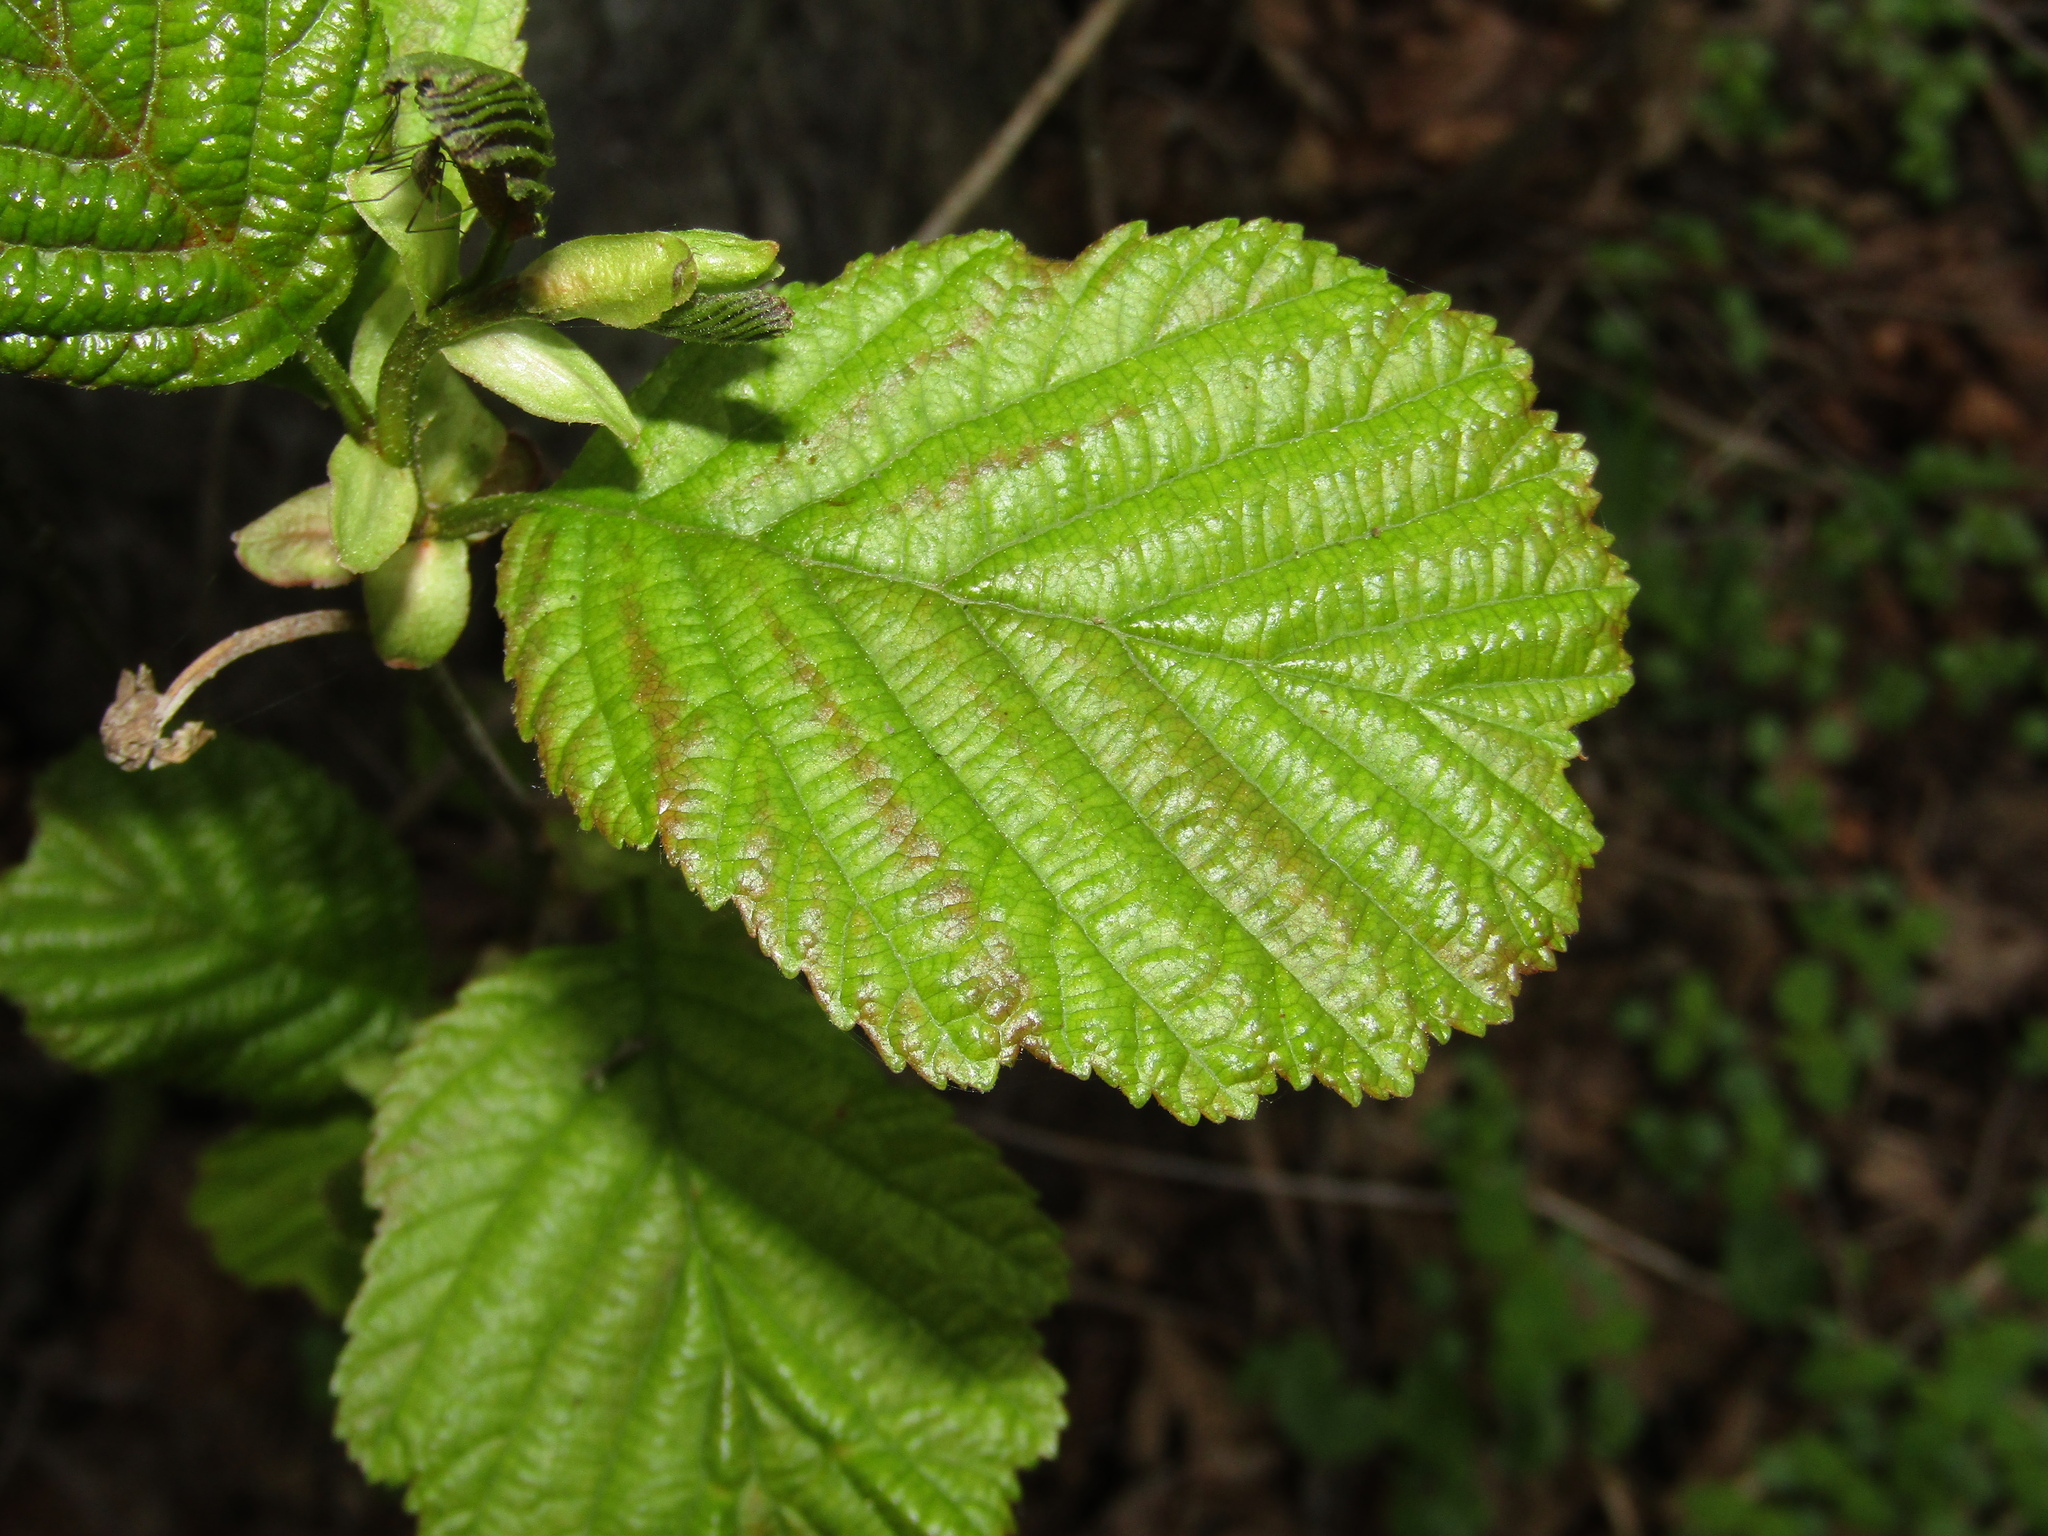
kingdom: Plantae
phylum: Tracheophyta
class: Magnoliopsida
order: Fagales
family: Betulaceae
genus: Alnus
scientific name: Alnus glutinosa
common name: Black alder
